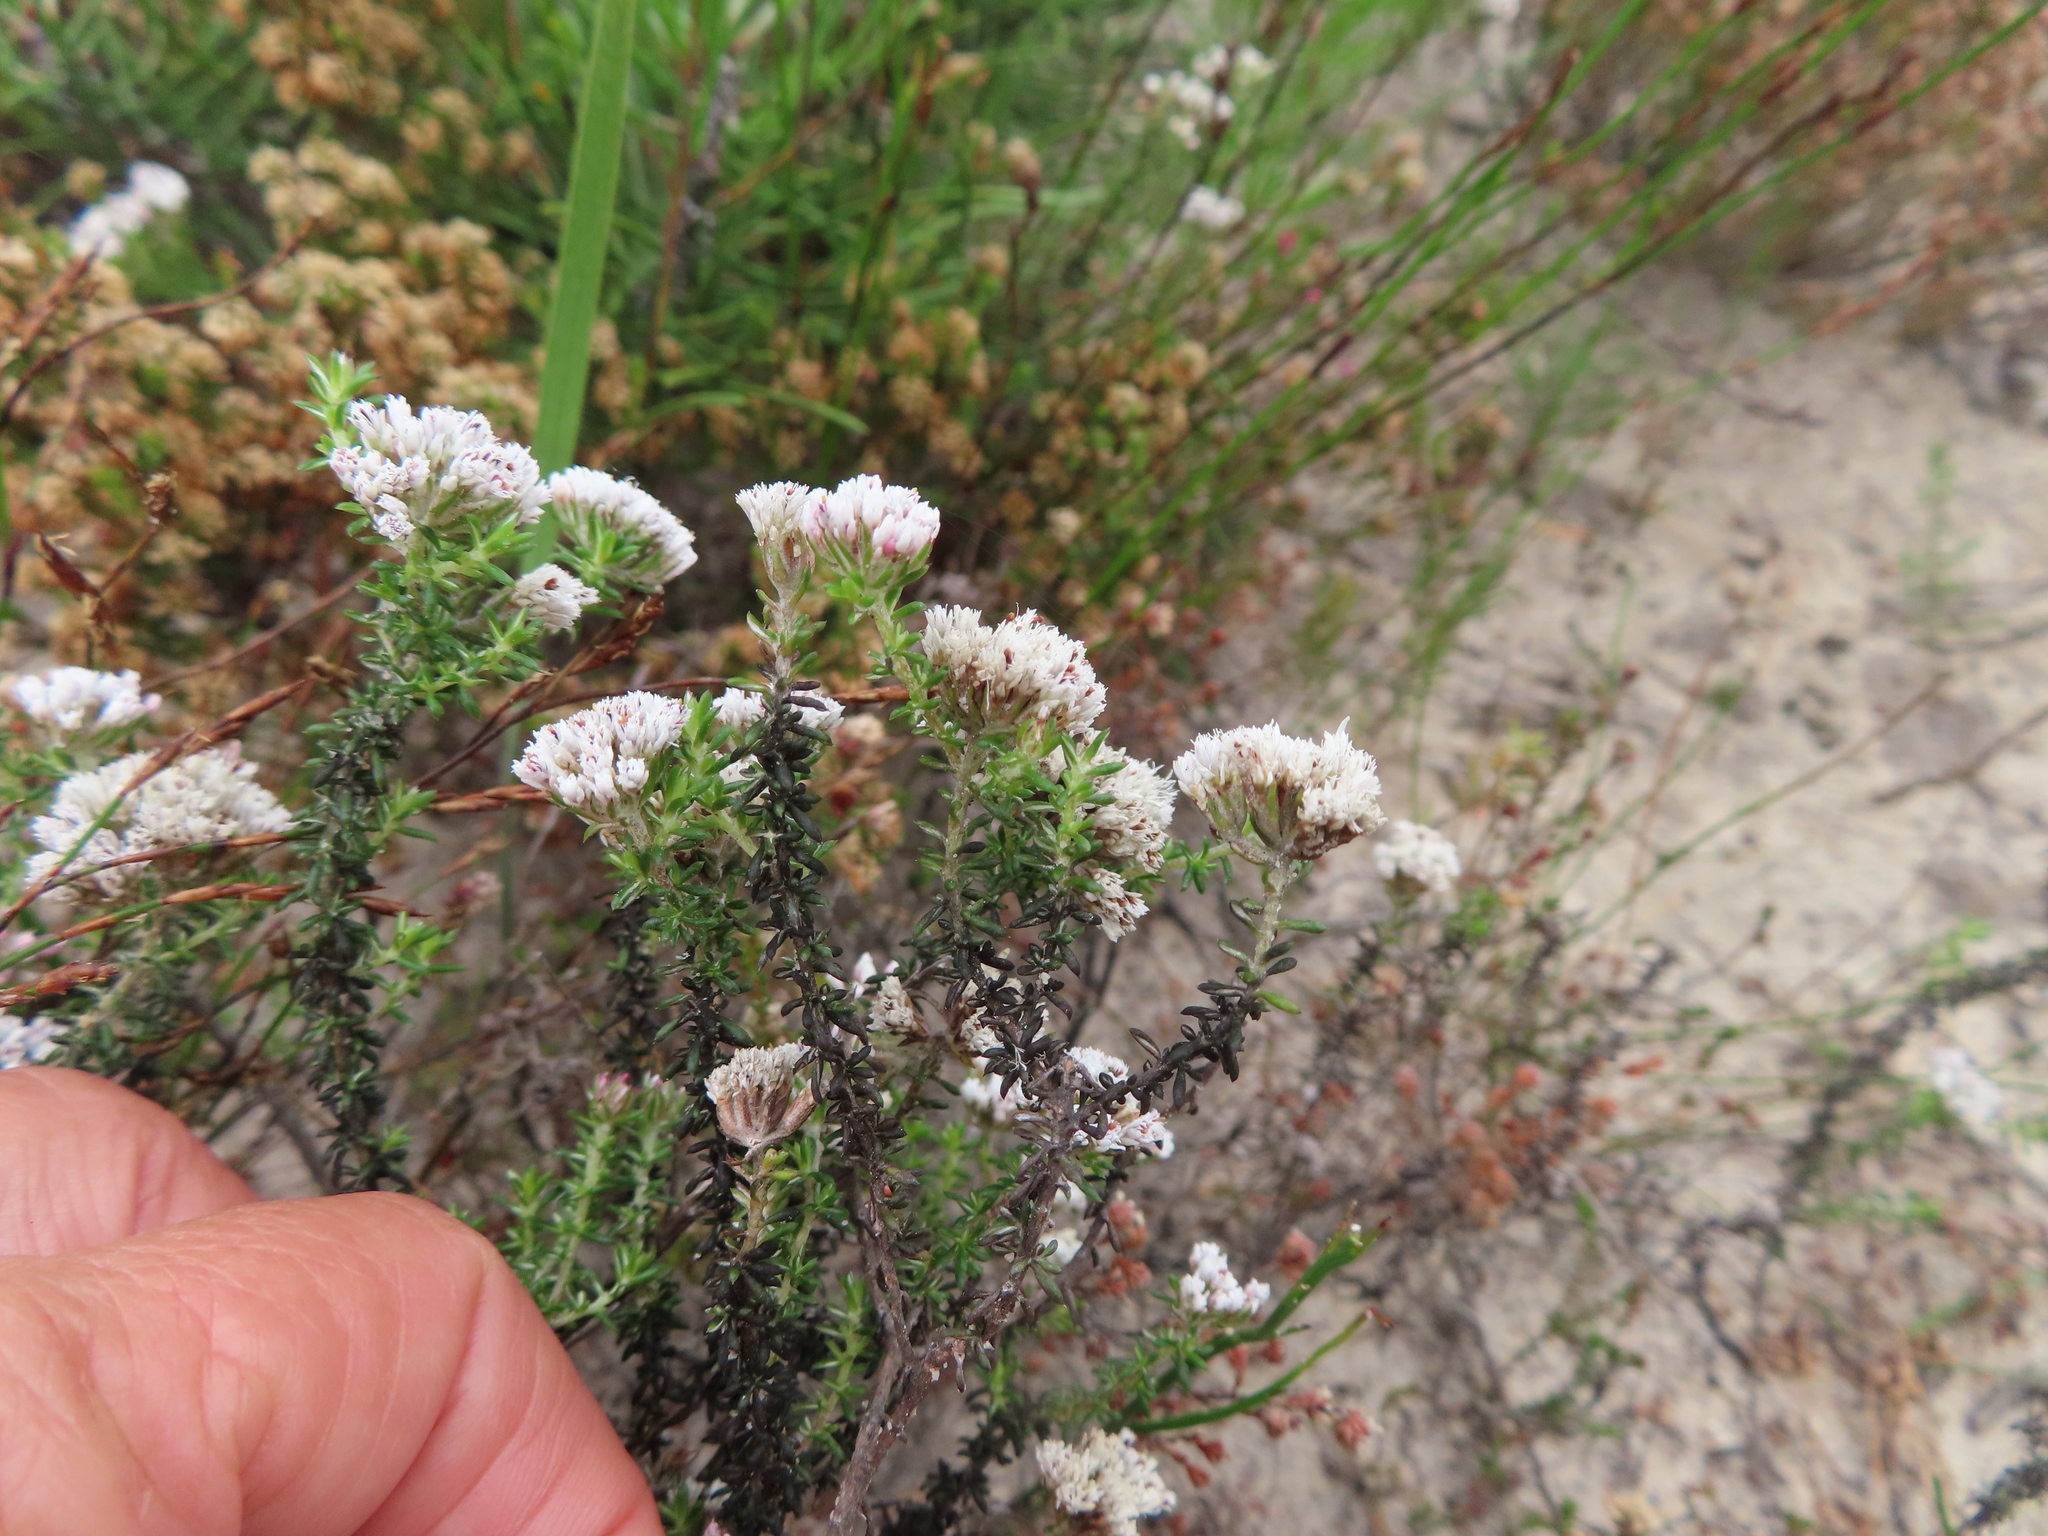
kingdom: Plantae
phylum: Tracheophyta
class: Magnoliopsida
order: Asterales
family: Asteraceae
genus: Metalasia
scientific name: Metalasia brevifolia
